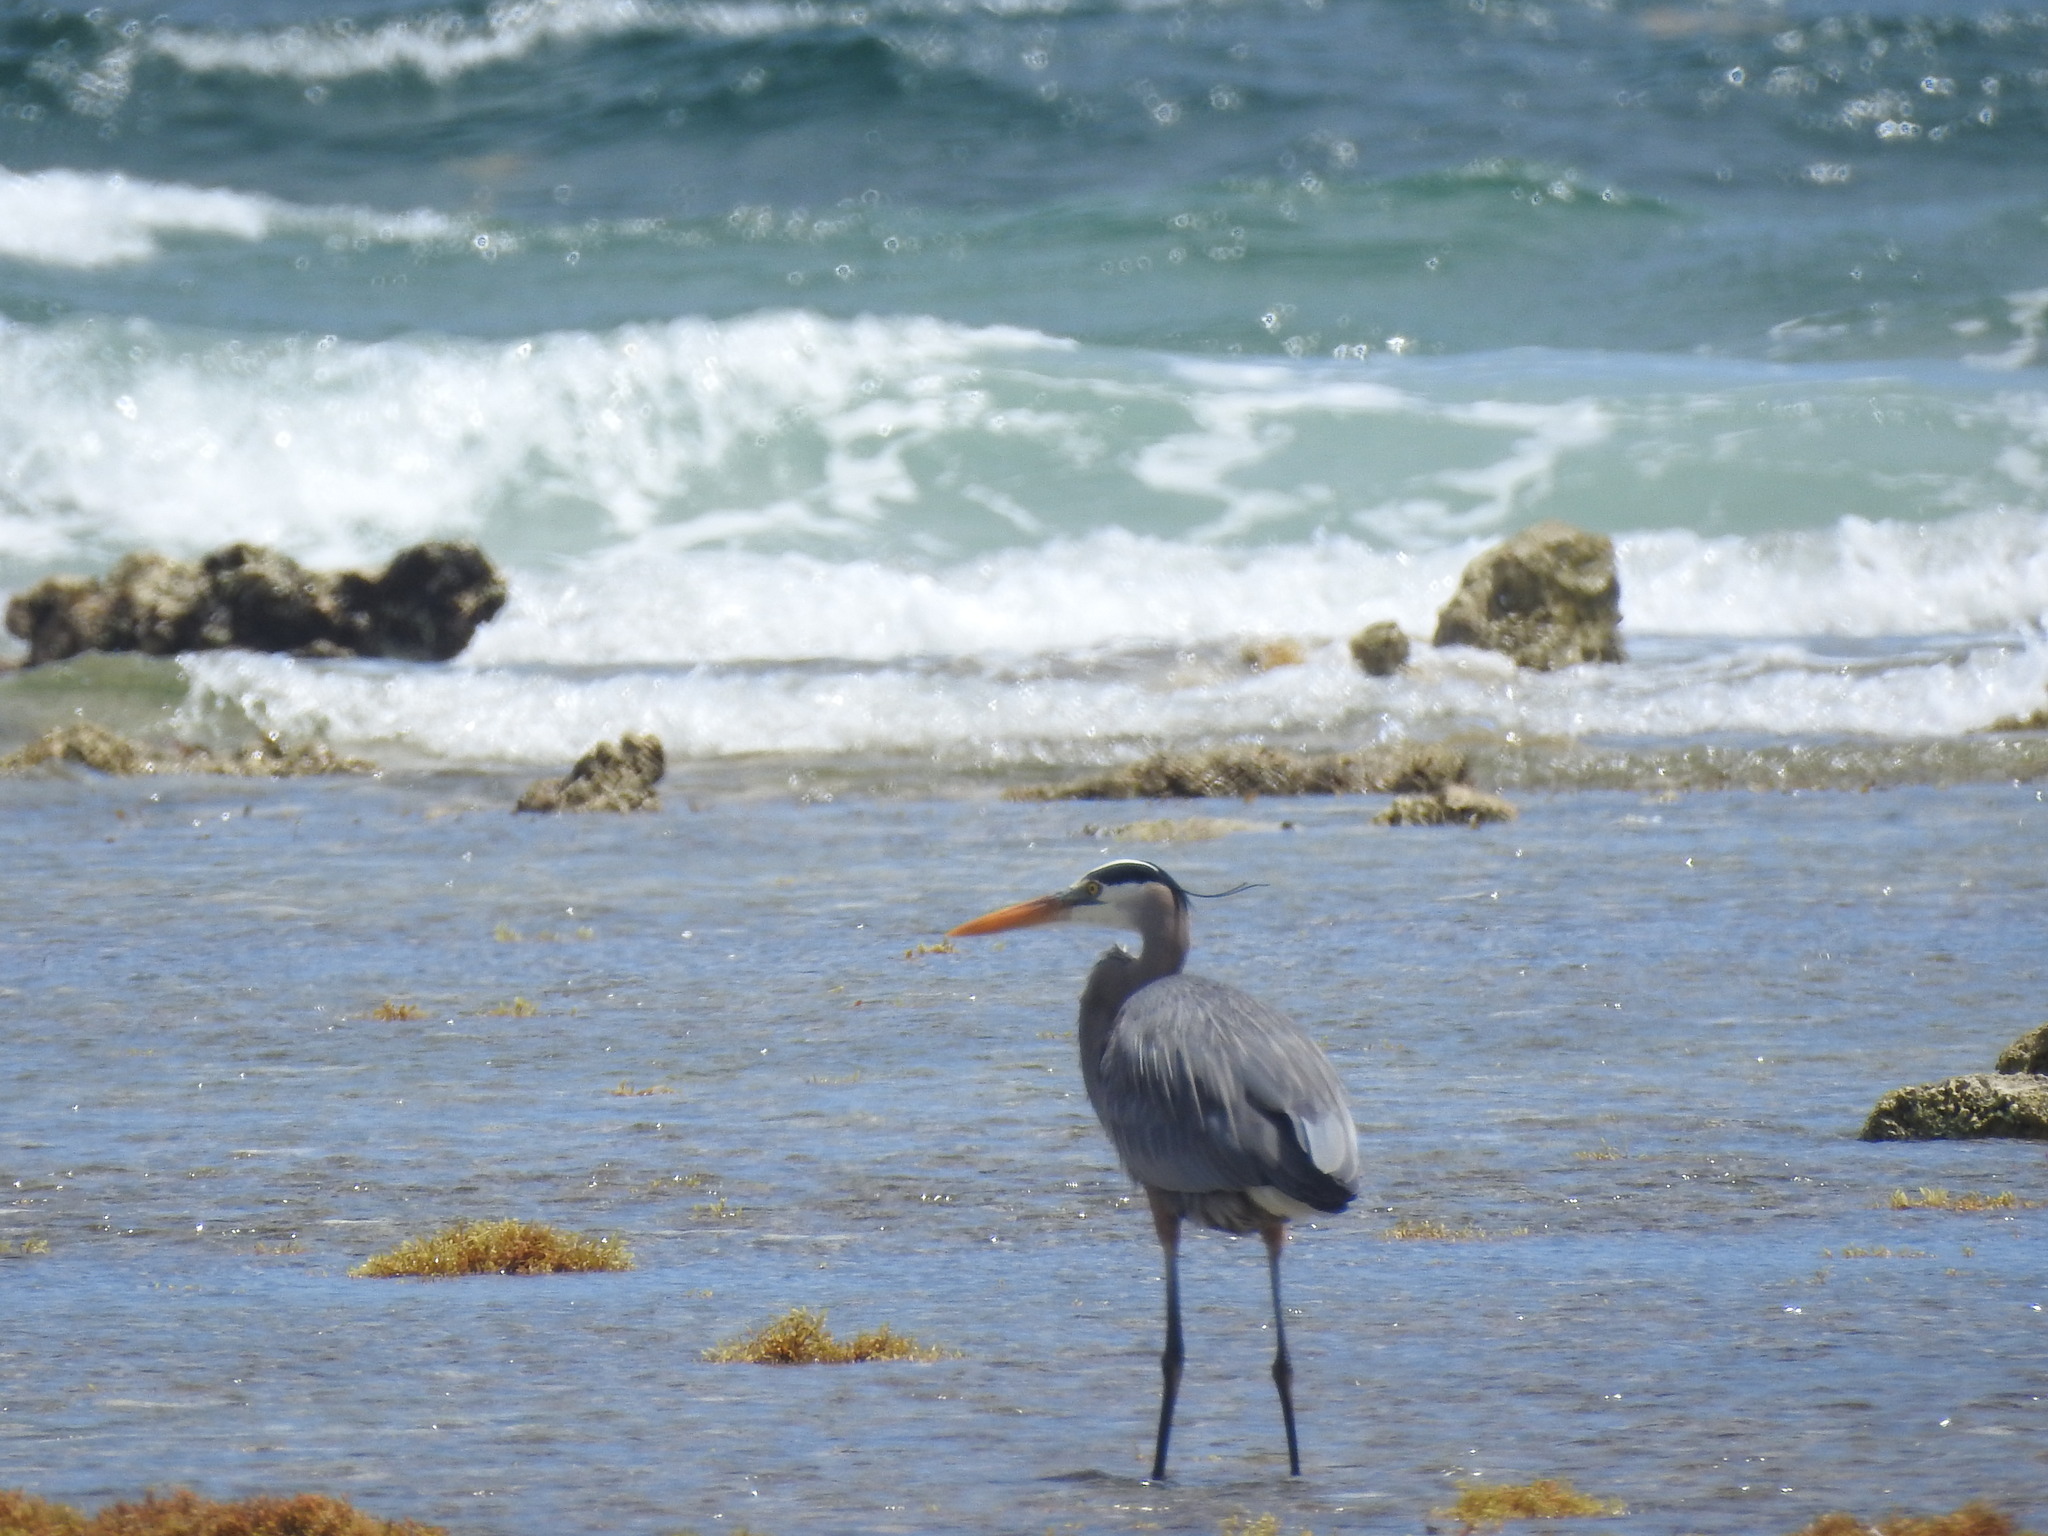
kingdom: Animalia
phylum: Chordata
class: Aves
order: Pelecaniformes
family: Ardeidae
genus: Ardea
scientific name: Ardea herodias
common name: Great blue heron
